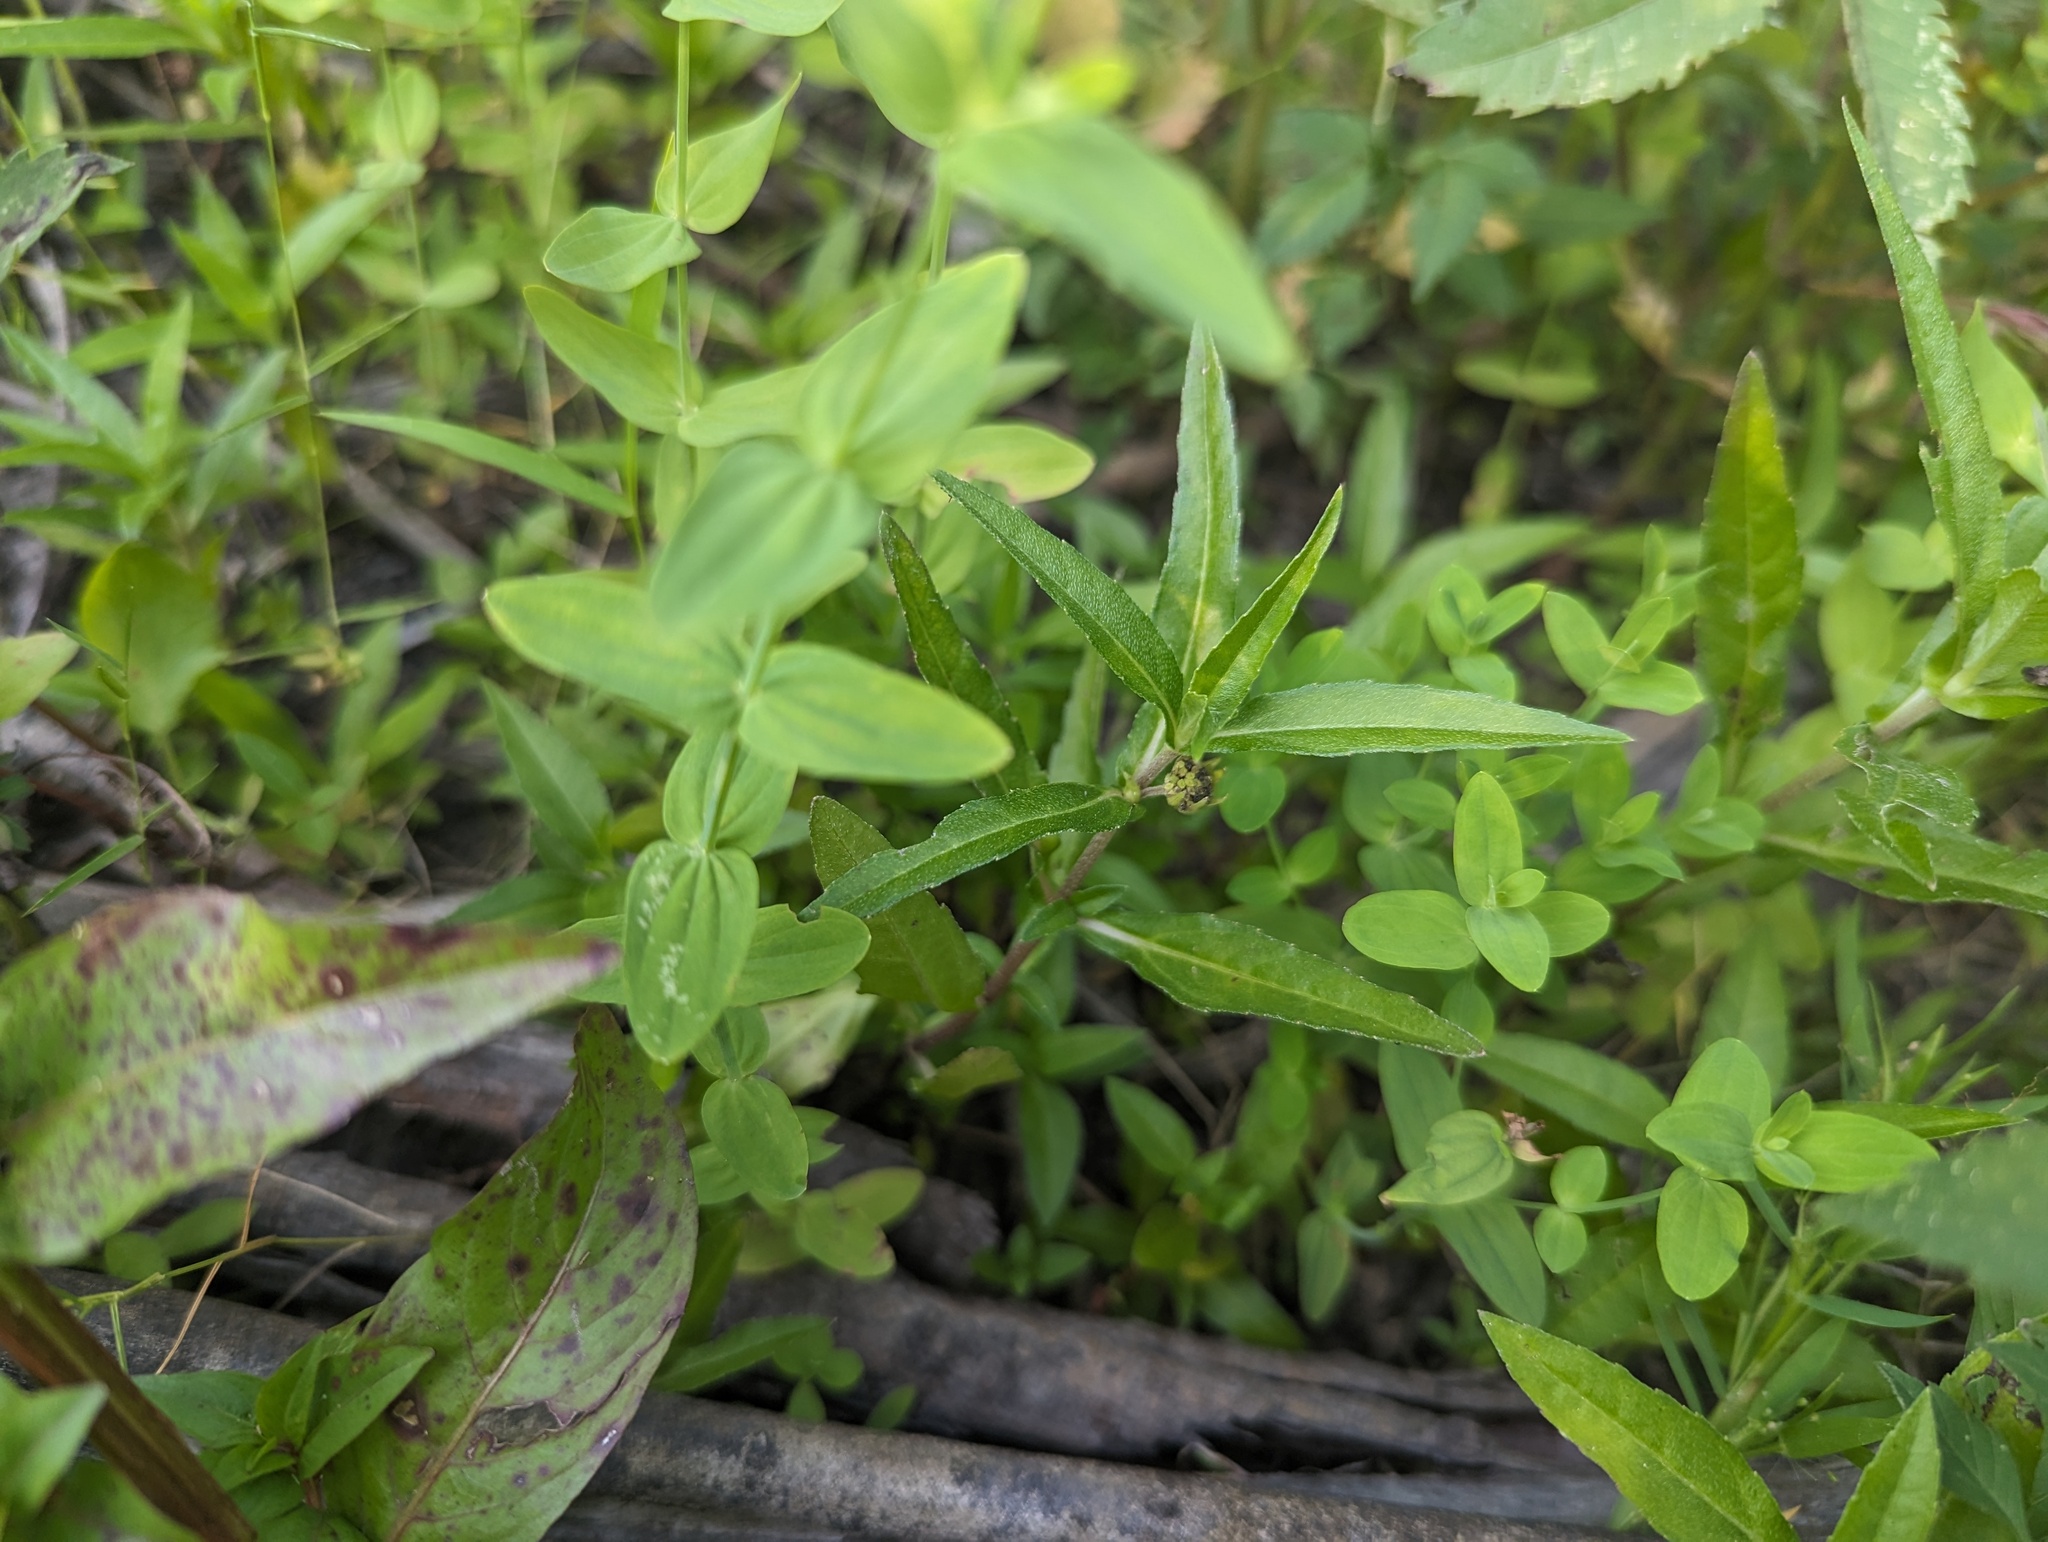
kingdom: Plantae
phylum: Tracheophyta
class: Magnoliopsida
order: Asterales
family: Asteraceae
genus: Eclipta
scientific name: Eclipta prostrata
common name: False daisy
